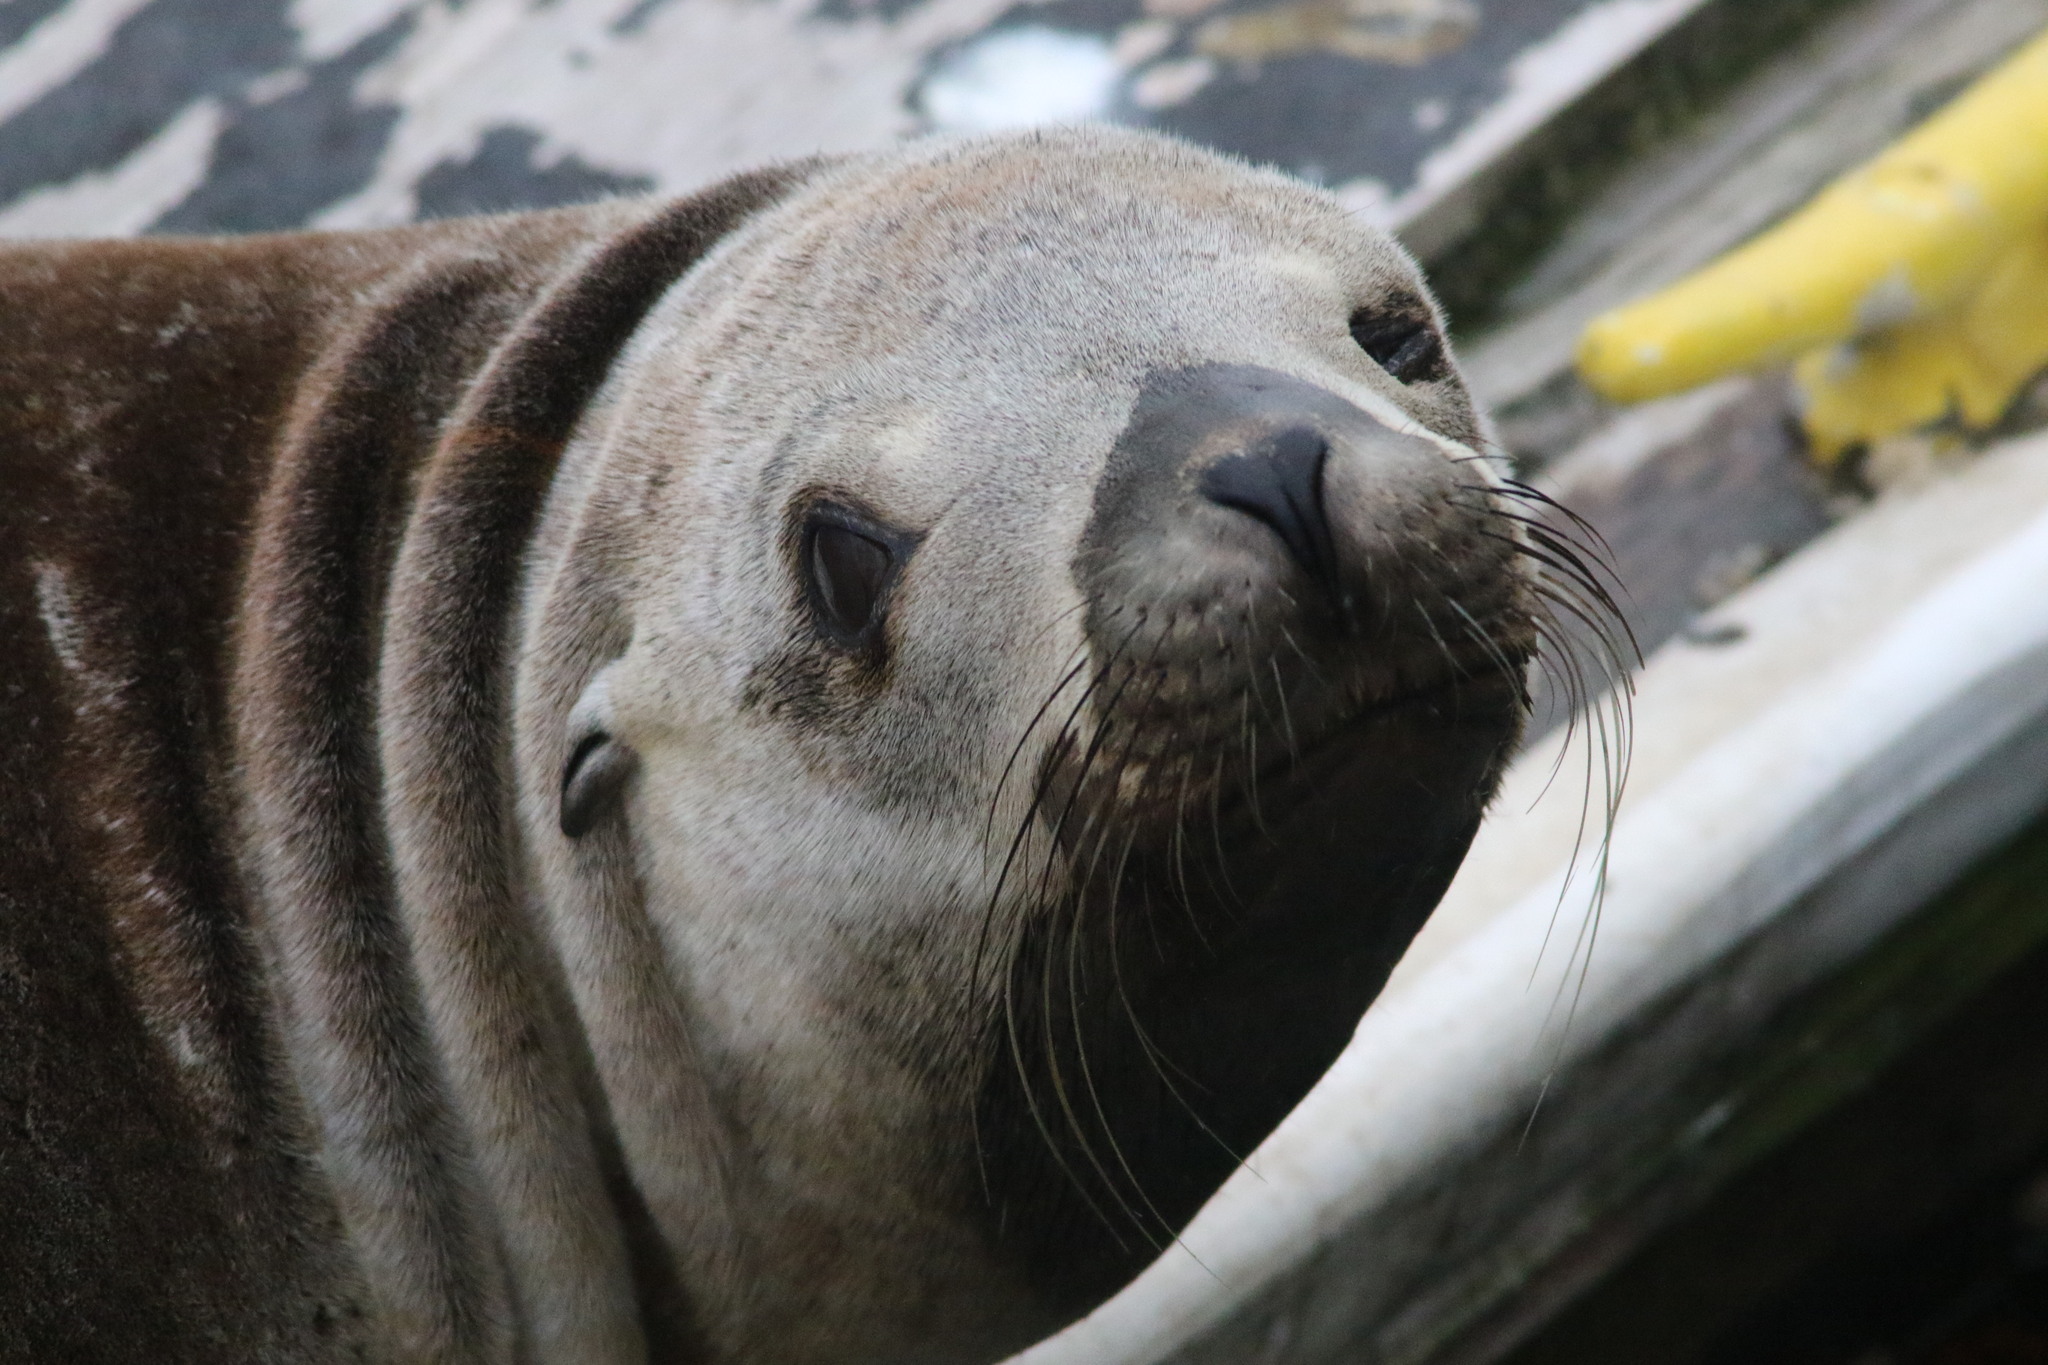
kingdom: Animalia
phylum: Chordata
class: Mammalia
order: Carnivora
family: Otariidae
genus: Zalophus
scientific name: Zalophus californianus
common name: California sea lion
